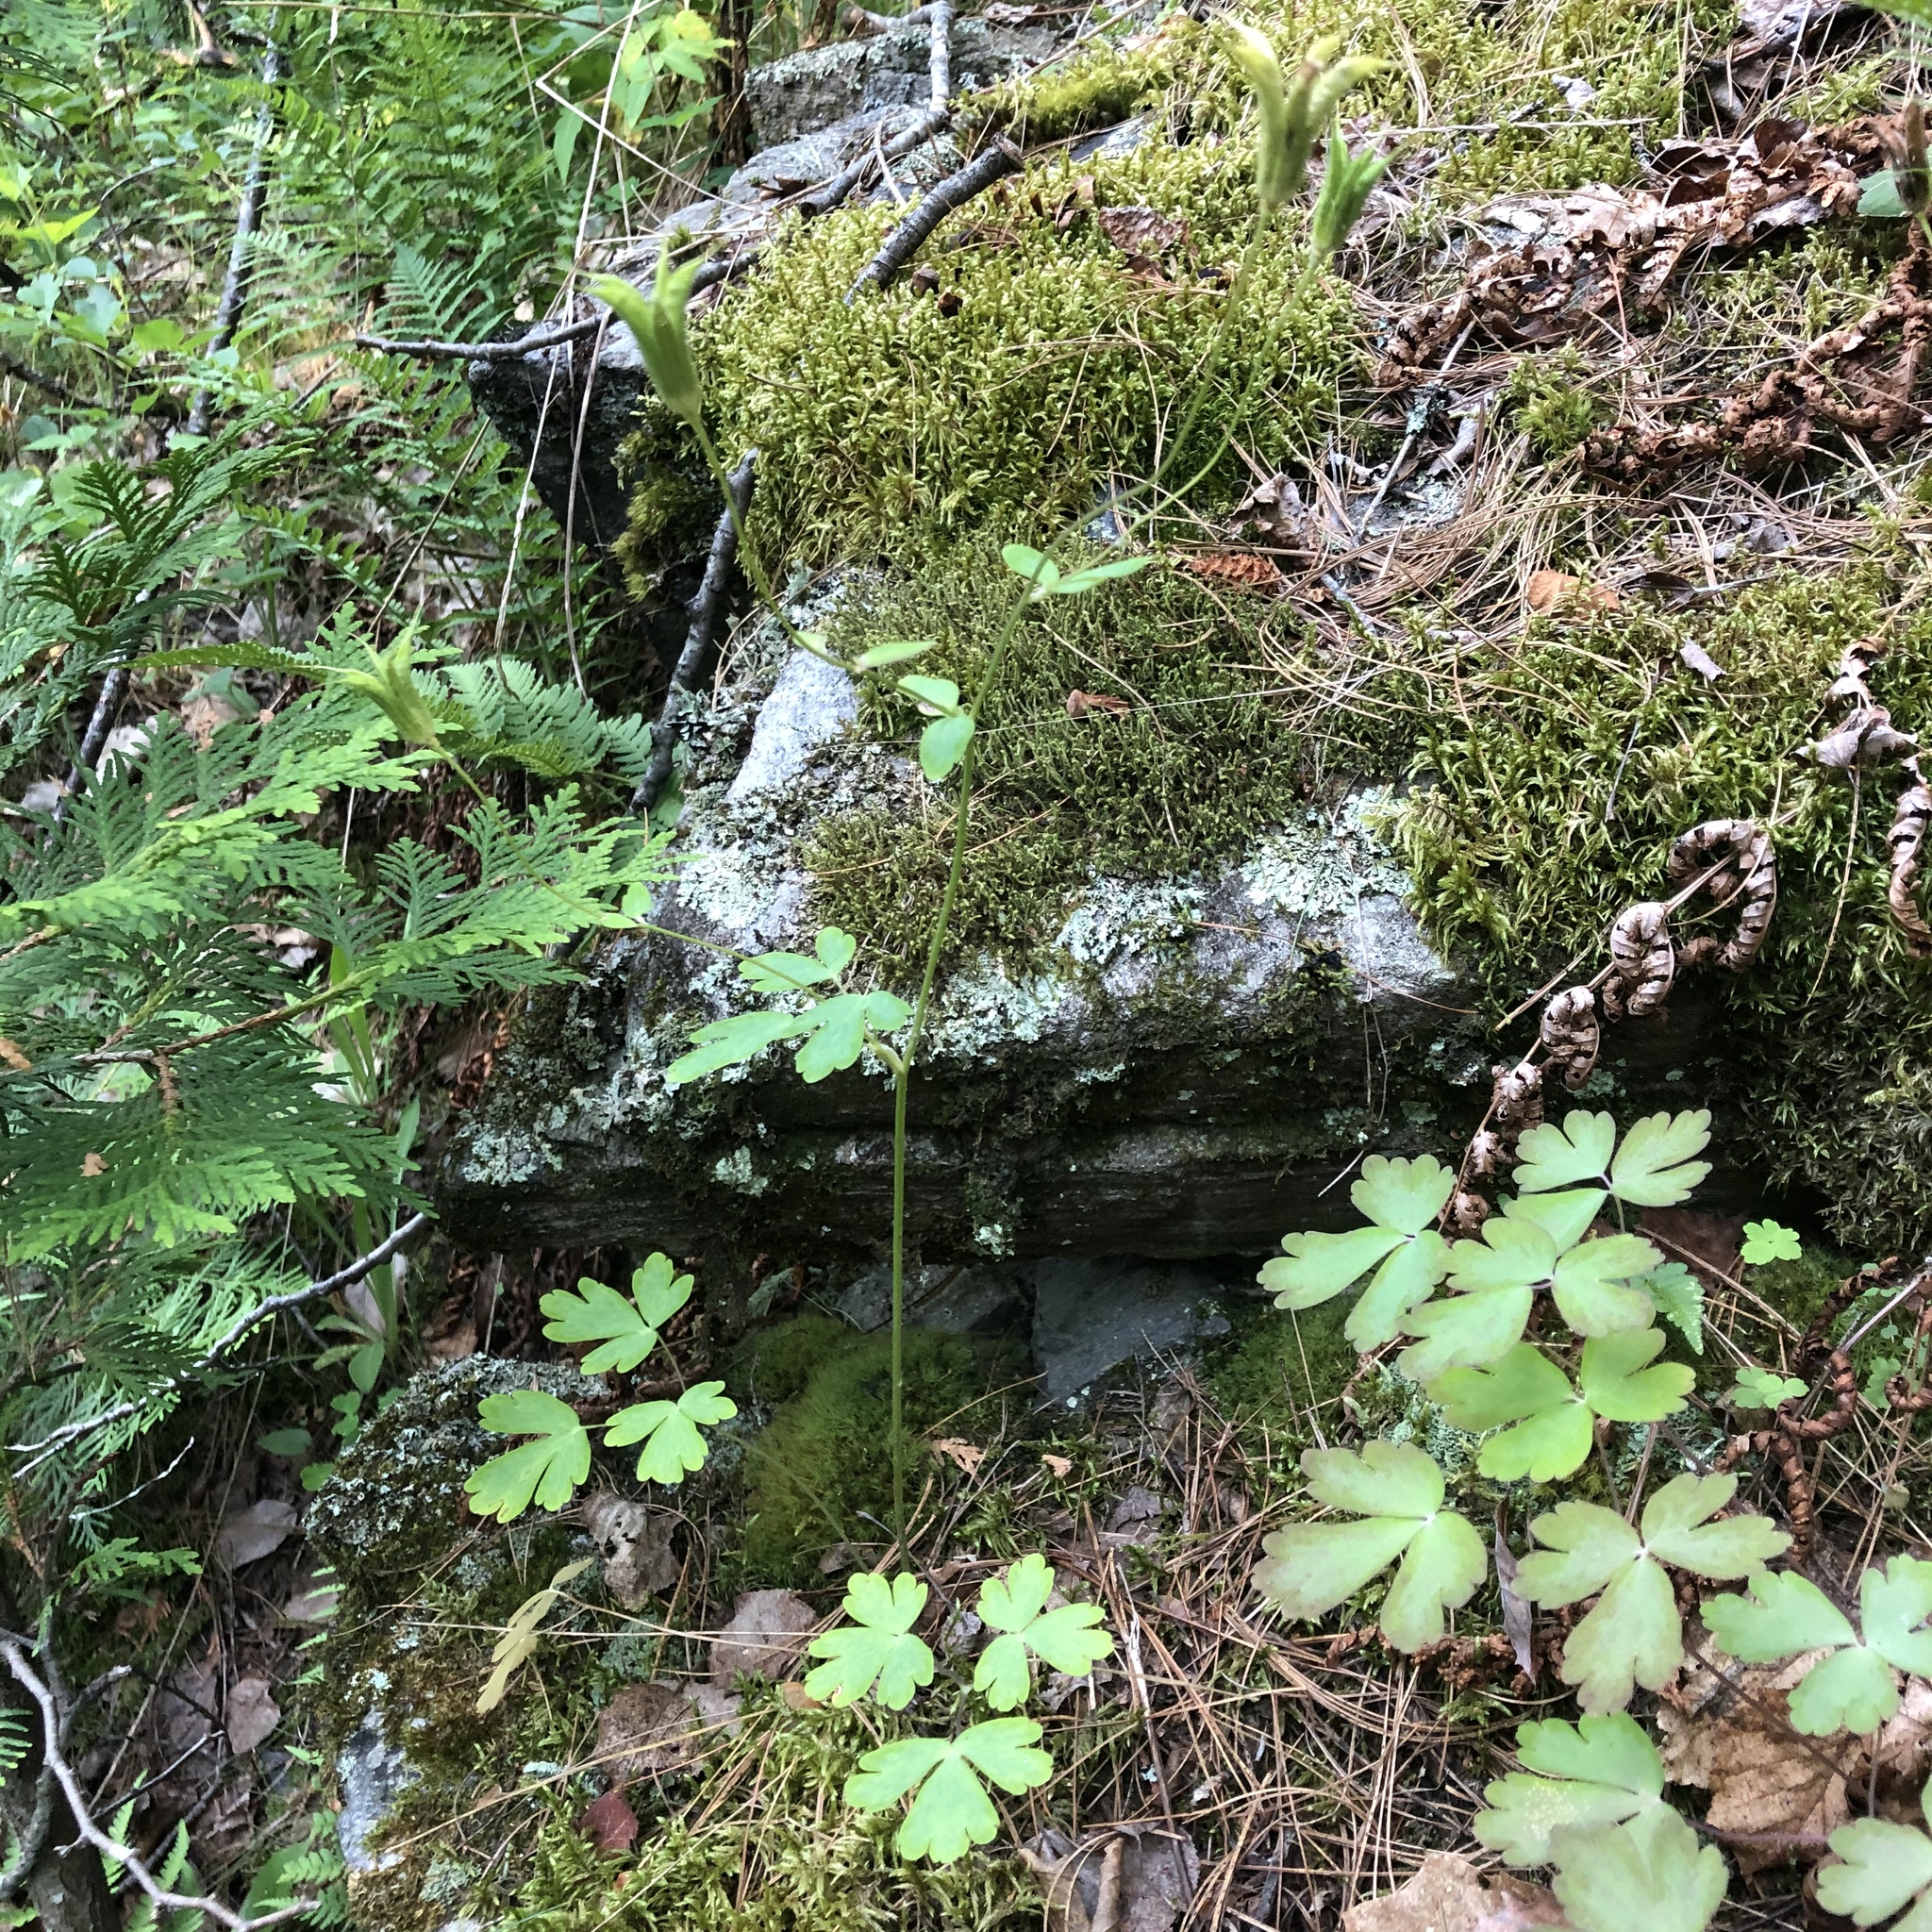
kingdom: Plantae
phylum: Tracheophyta
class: Magnoliopsida
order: Ranunculales
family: Ranunculaceae
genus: Aquilegia
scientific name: Aquilegia canadensis
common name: American columbine
